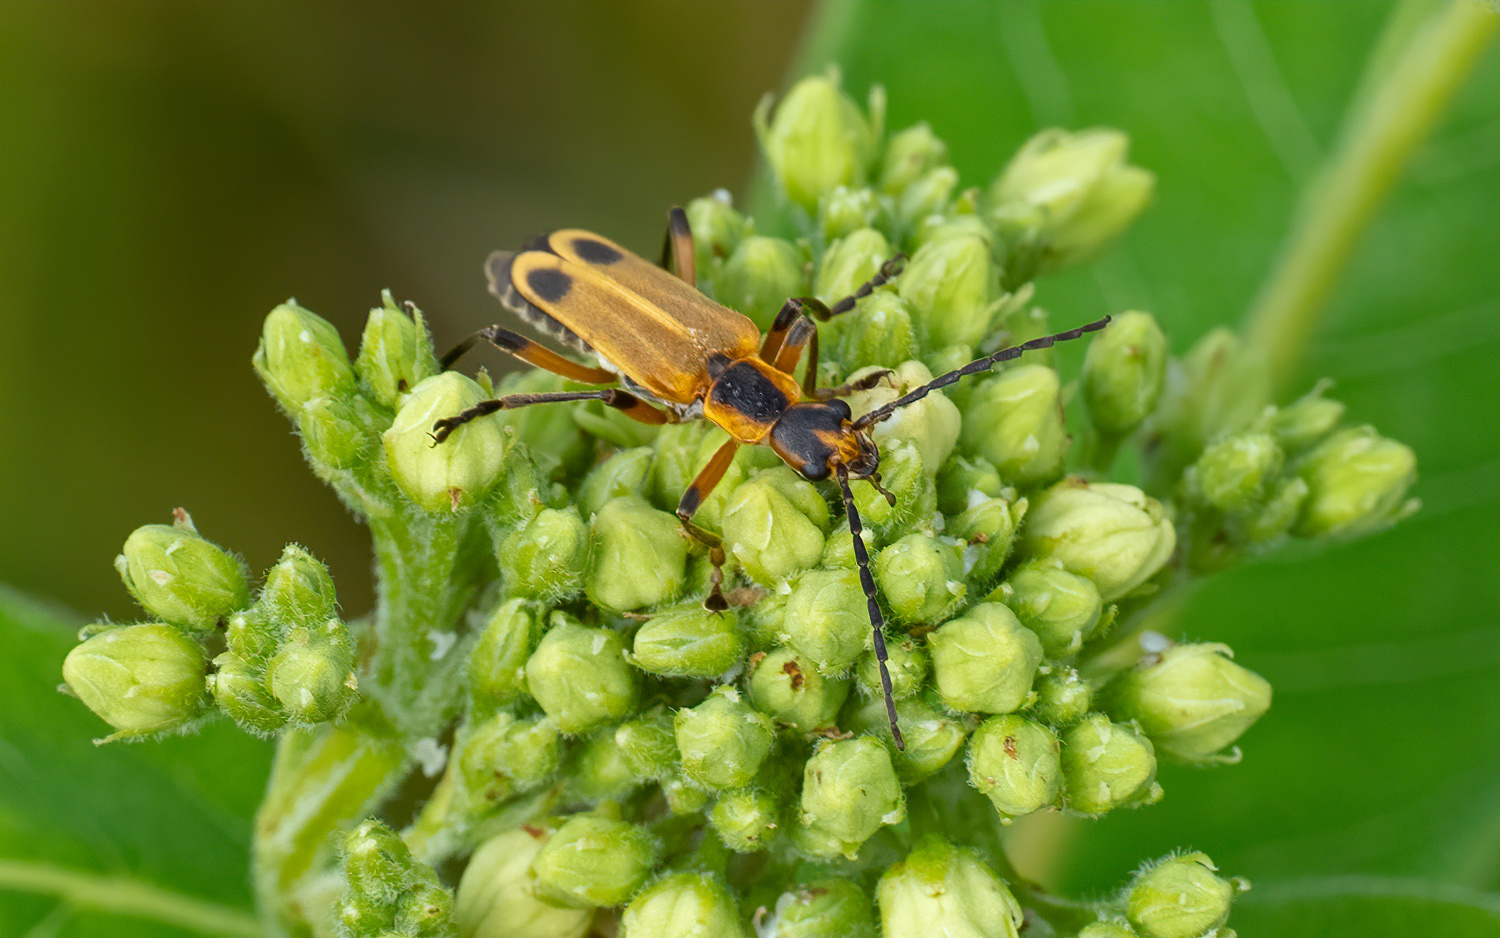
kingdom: Animalia
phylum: Arthropoda
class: Insecta
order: Coleoptera
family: Cantharidae
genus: Chauliognathus
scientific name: Chauliognathus marginatus
